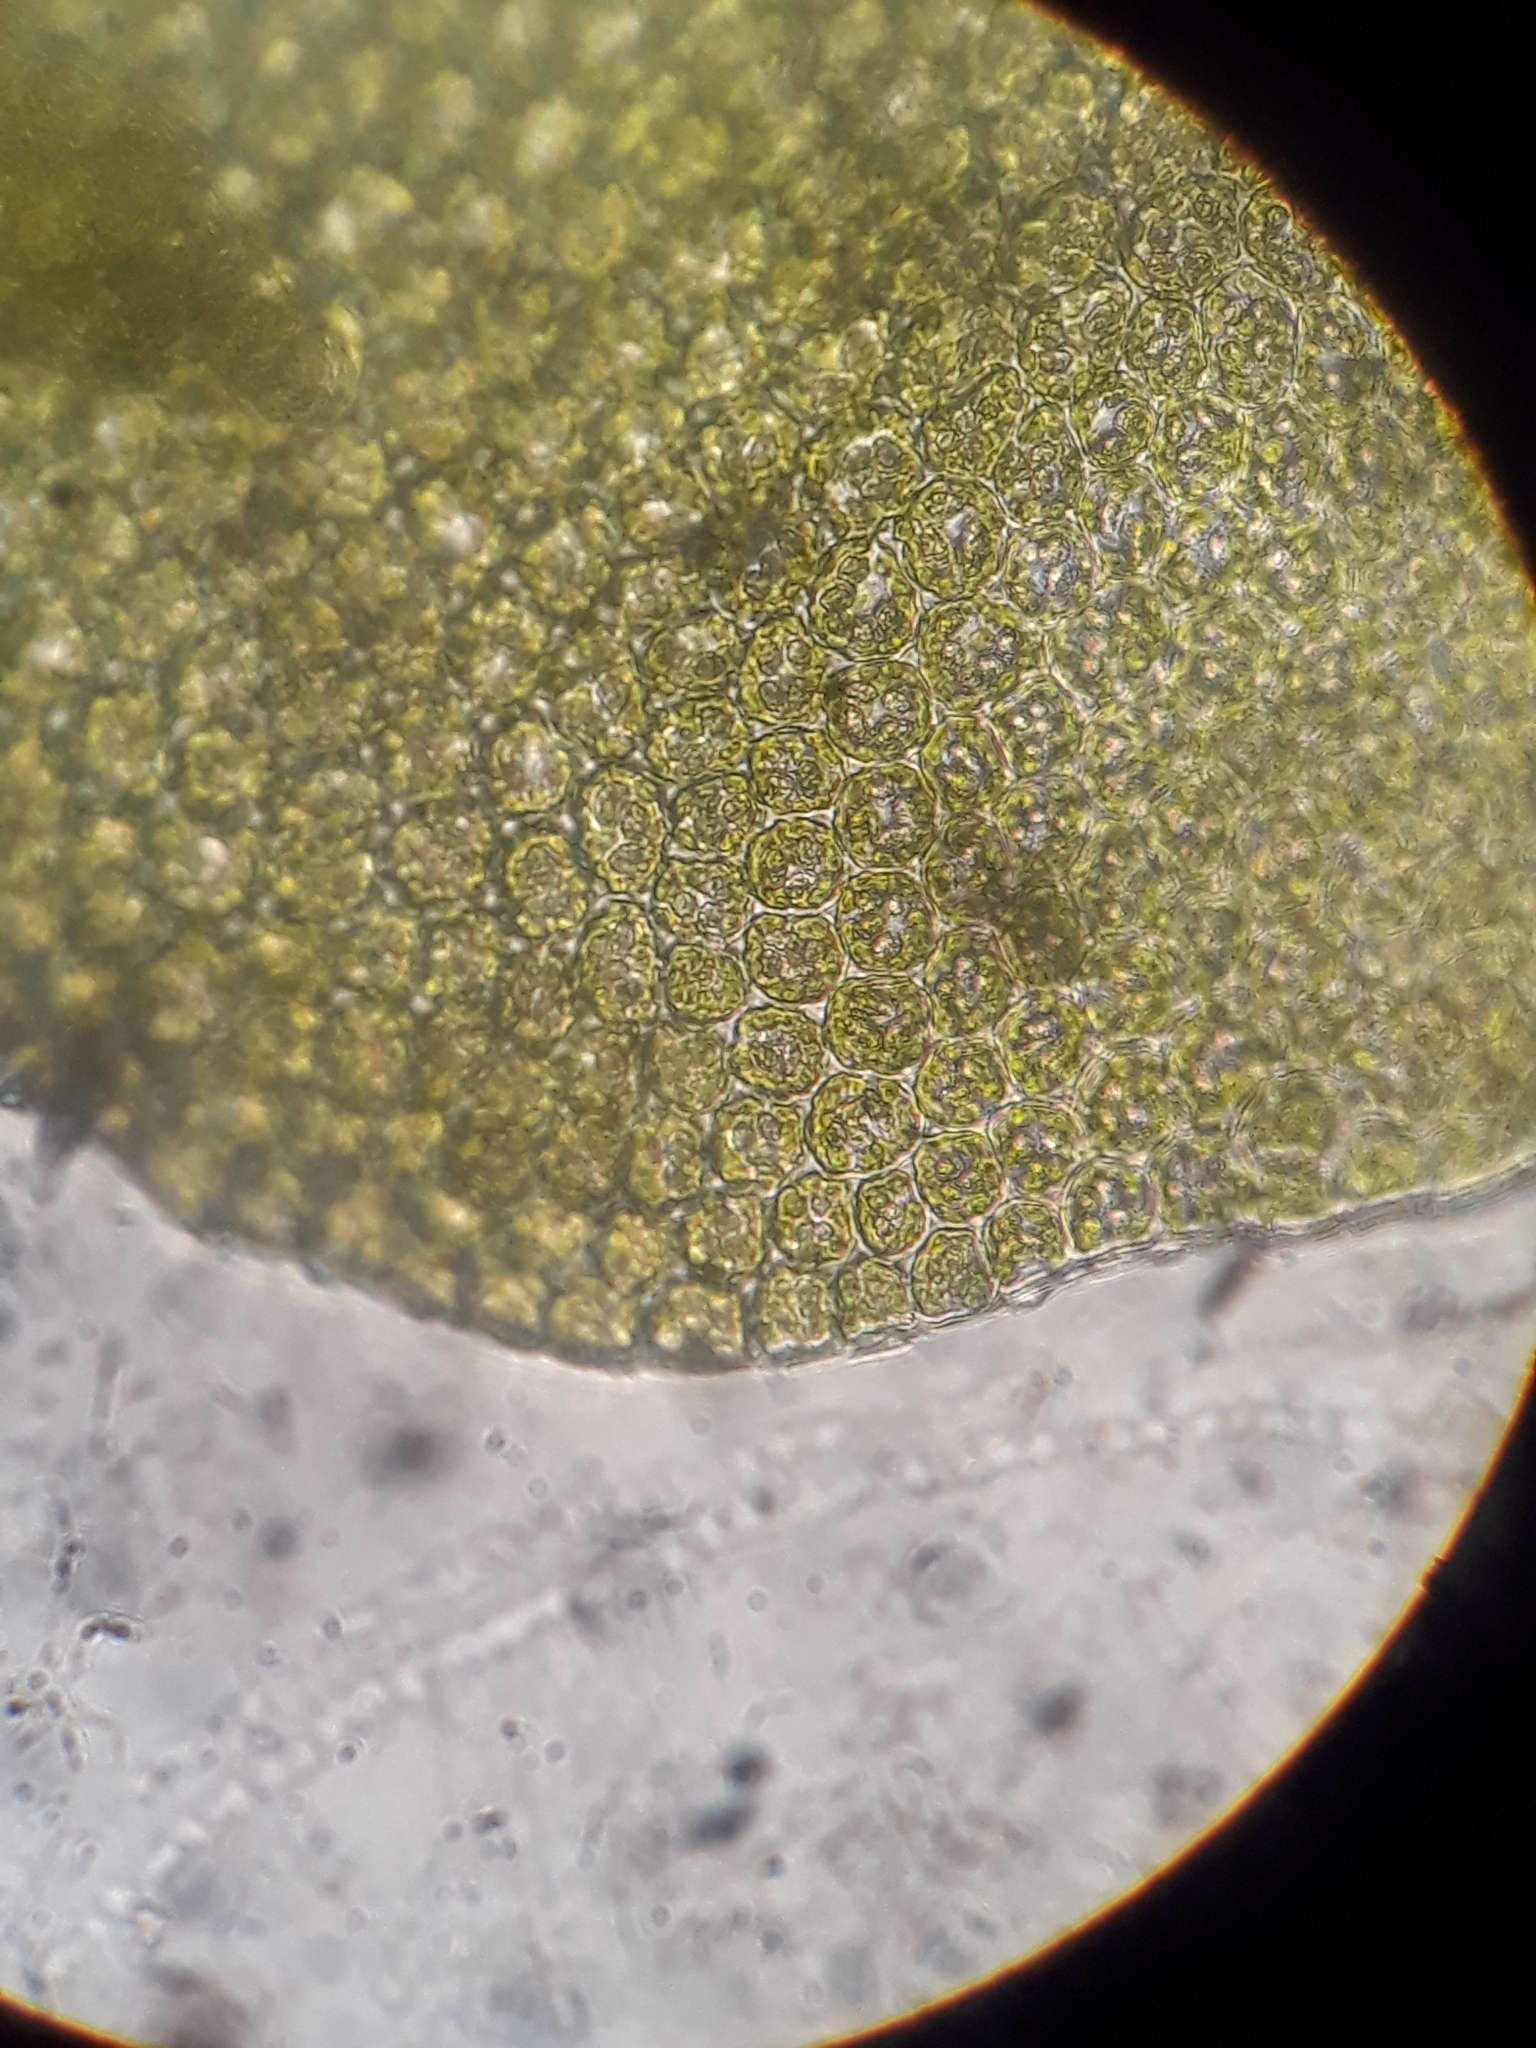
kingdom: Plantae
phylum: Marchantiophyta
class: Jungermanniopsida
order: Porellales
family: Frullaniaceae
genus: Frullania
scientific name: Frullania rostellata
